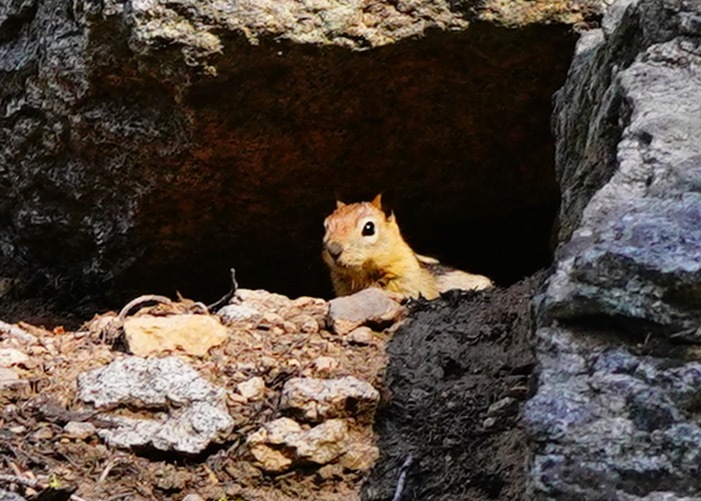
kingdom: Animalia
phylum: Chordata
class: Mammalia
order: Rodentia
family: Sciuridae
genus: Callospermophilus
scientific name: Callospermophilus lateralis
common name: Golden-mantled ground squirrel
